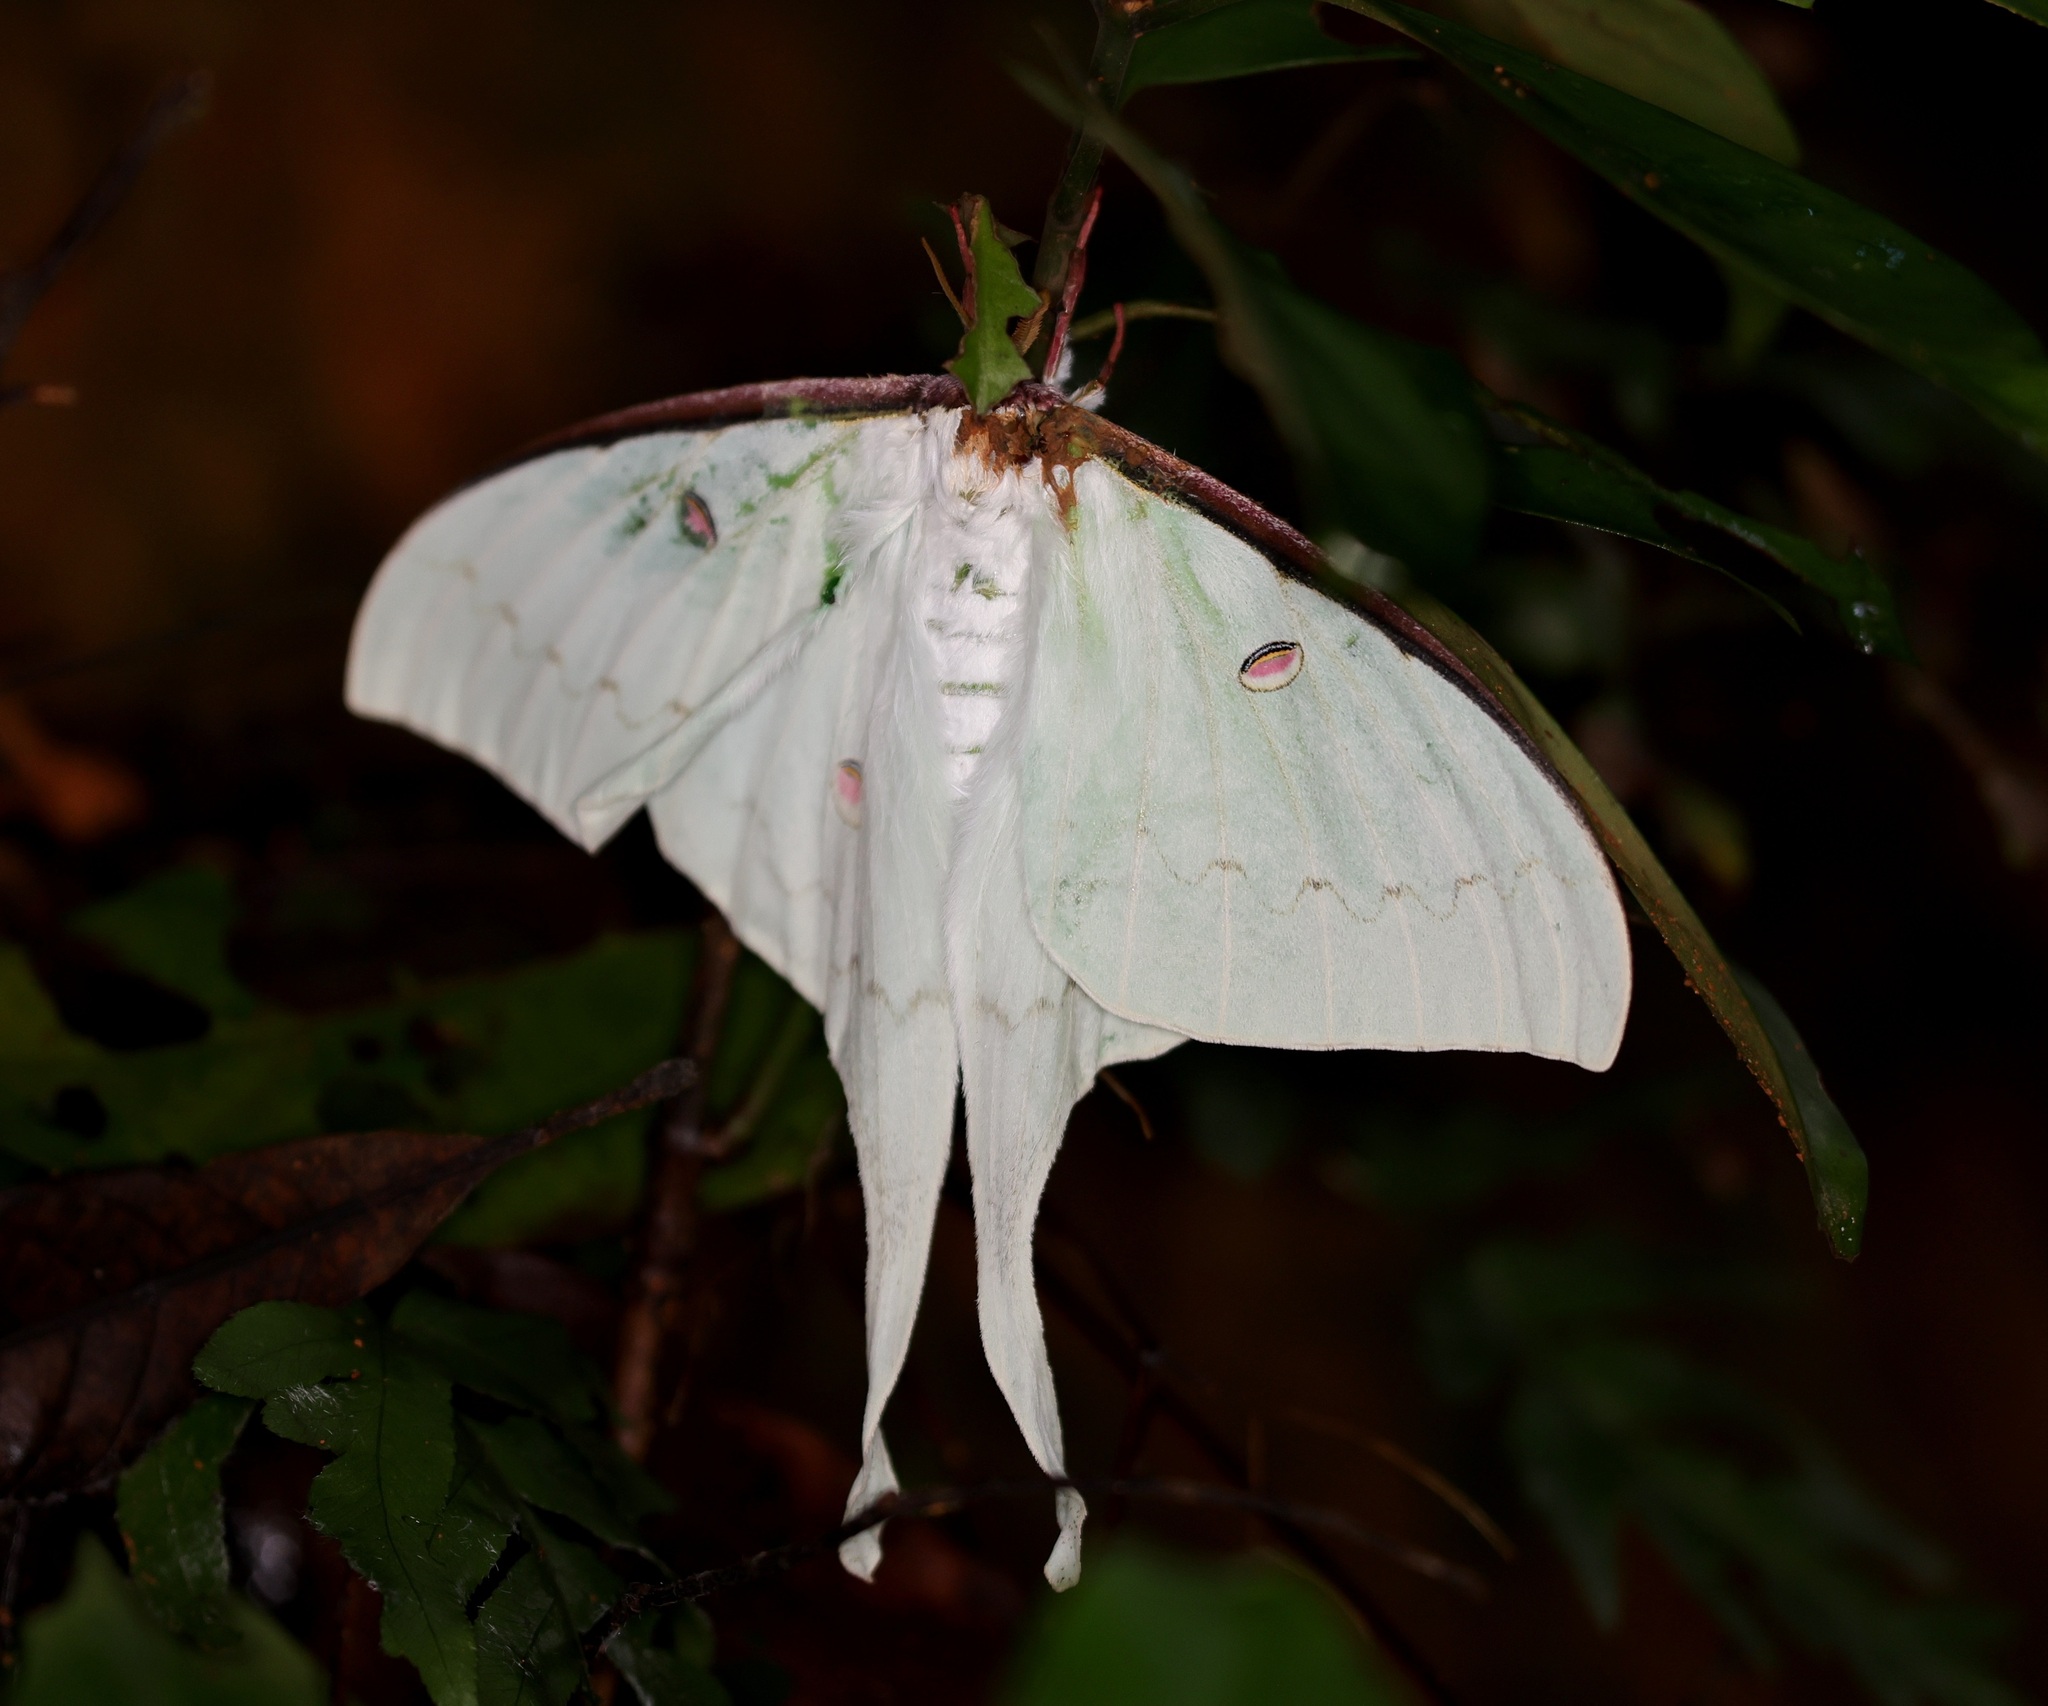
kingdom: Animalia
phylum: Arthropoda
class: Insecta
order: Lepidoptera
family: Saturniidae
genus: Actias
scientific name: Actias sinensis
